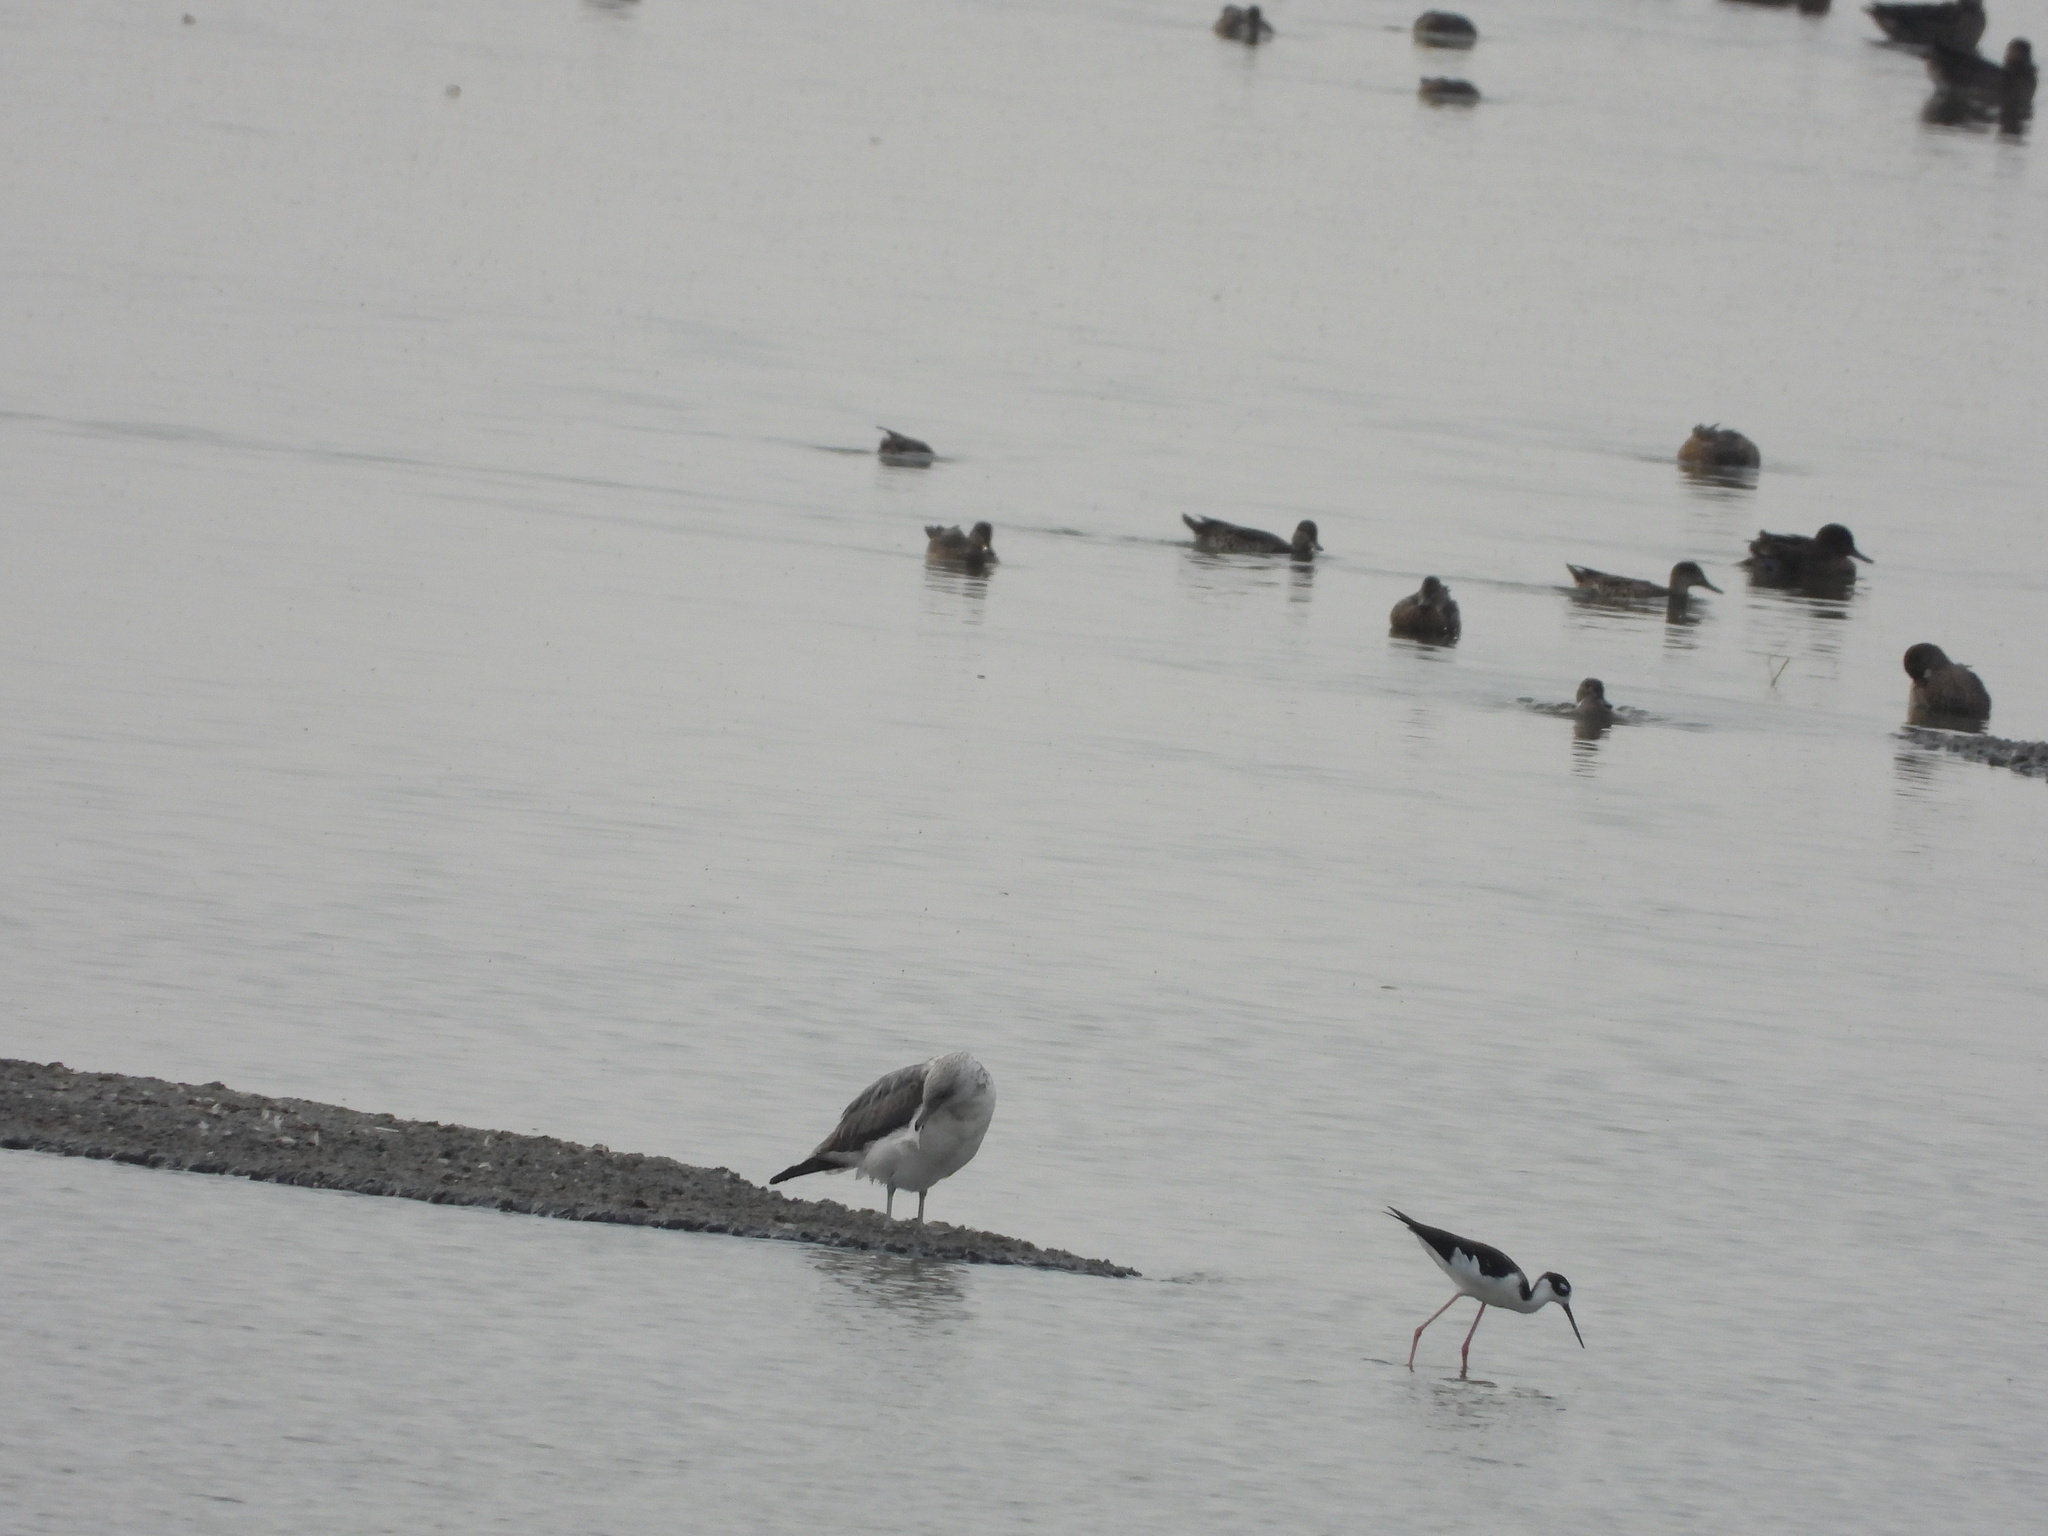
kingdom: Animalia
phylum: Chordata
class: Aves
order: Charadriiformes
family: Recurvirostridae
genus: Himantopus
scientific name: Himantopus mexicanus
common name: Black-necked stilt
